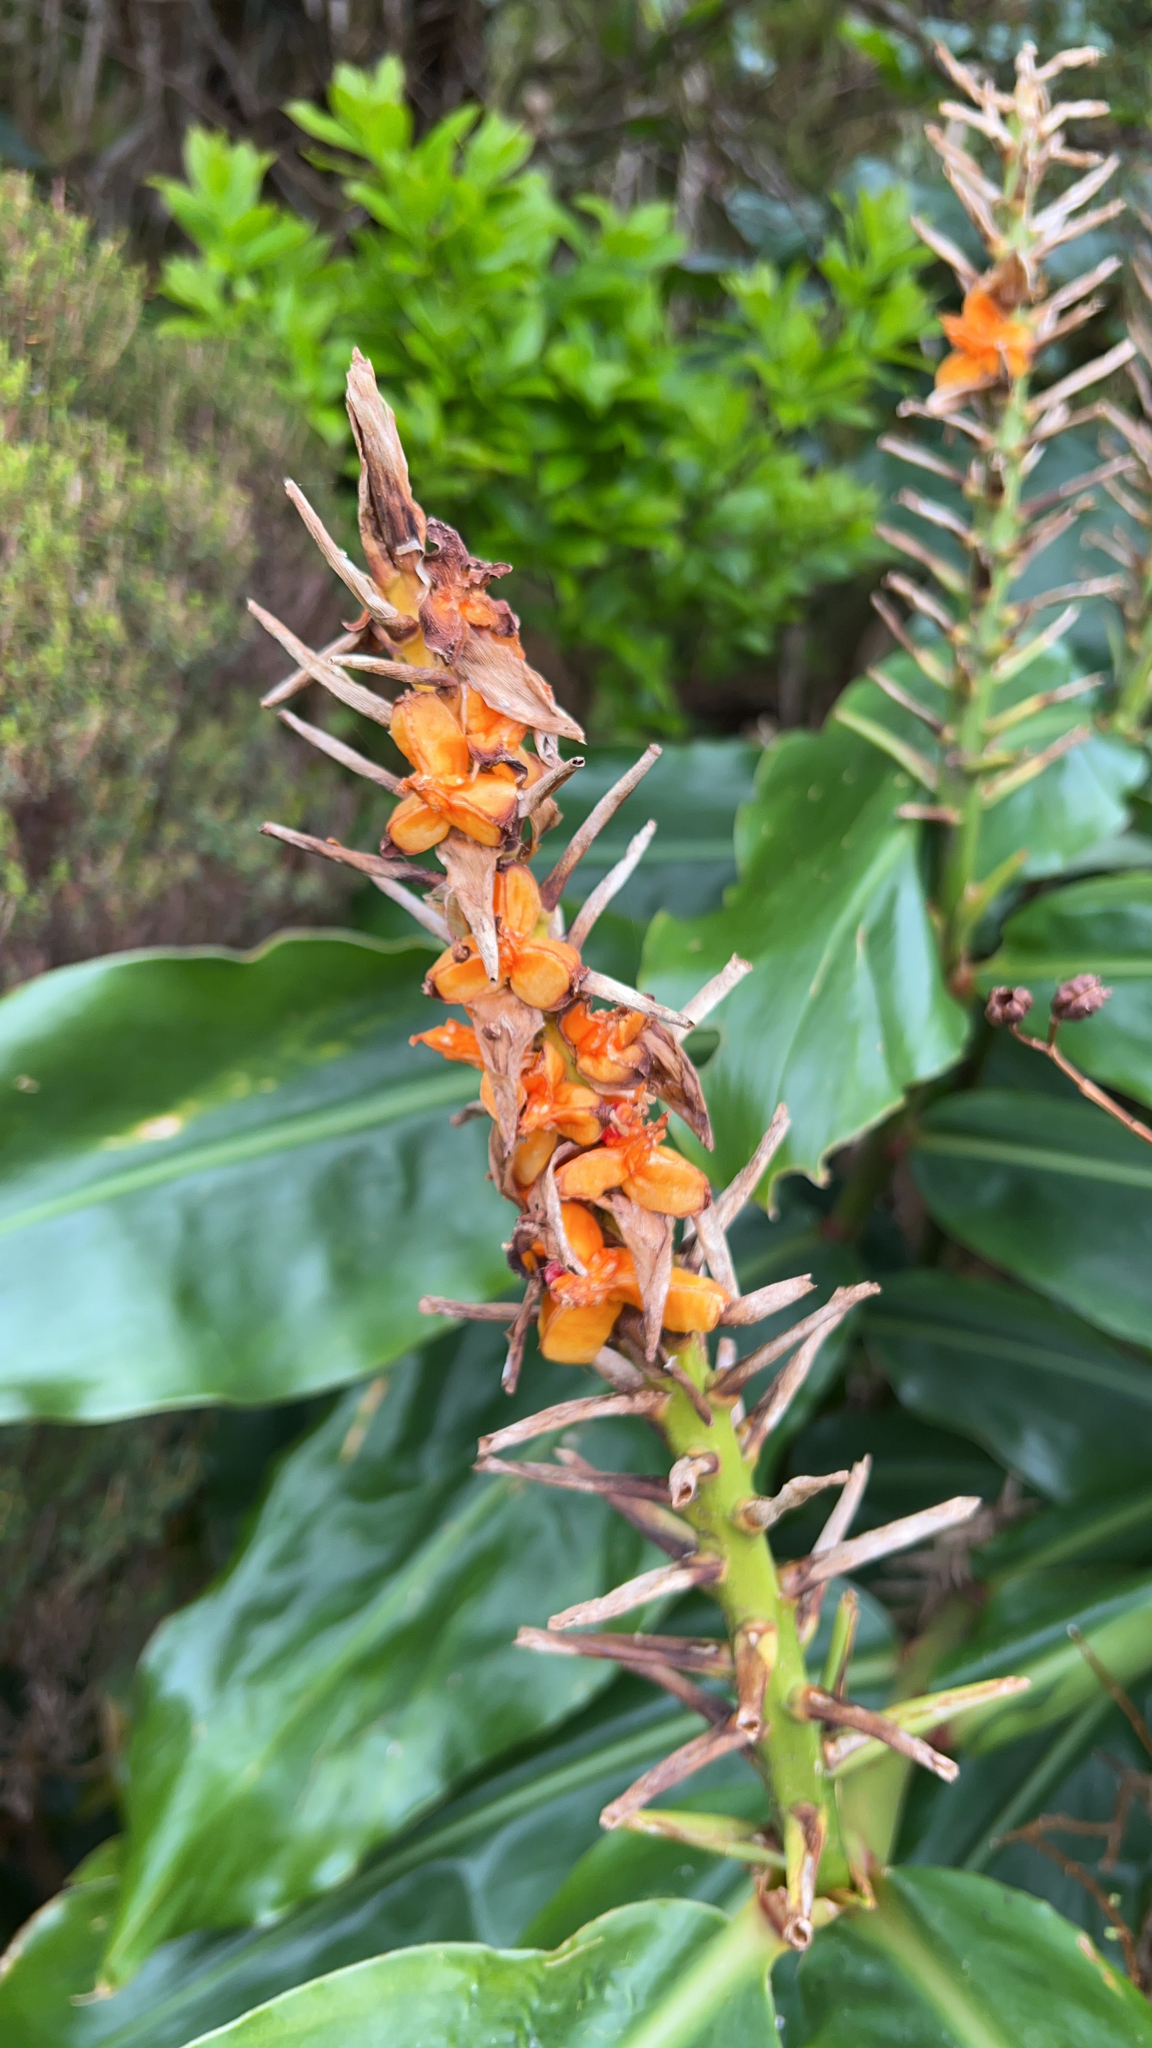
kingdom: Plantae
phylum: Tracheophyta
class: Liliopsida
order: Zingiberales
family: Zingiberaceae
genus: Hedychium
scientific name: Hedychium gardnerianum
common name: Himalayan ginger
